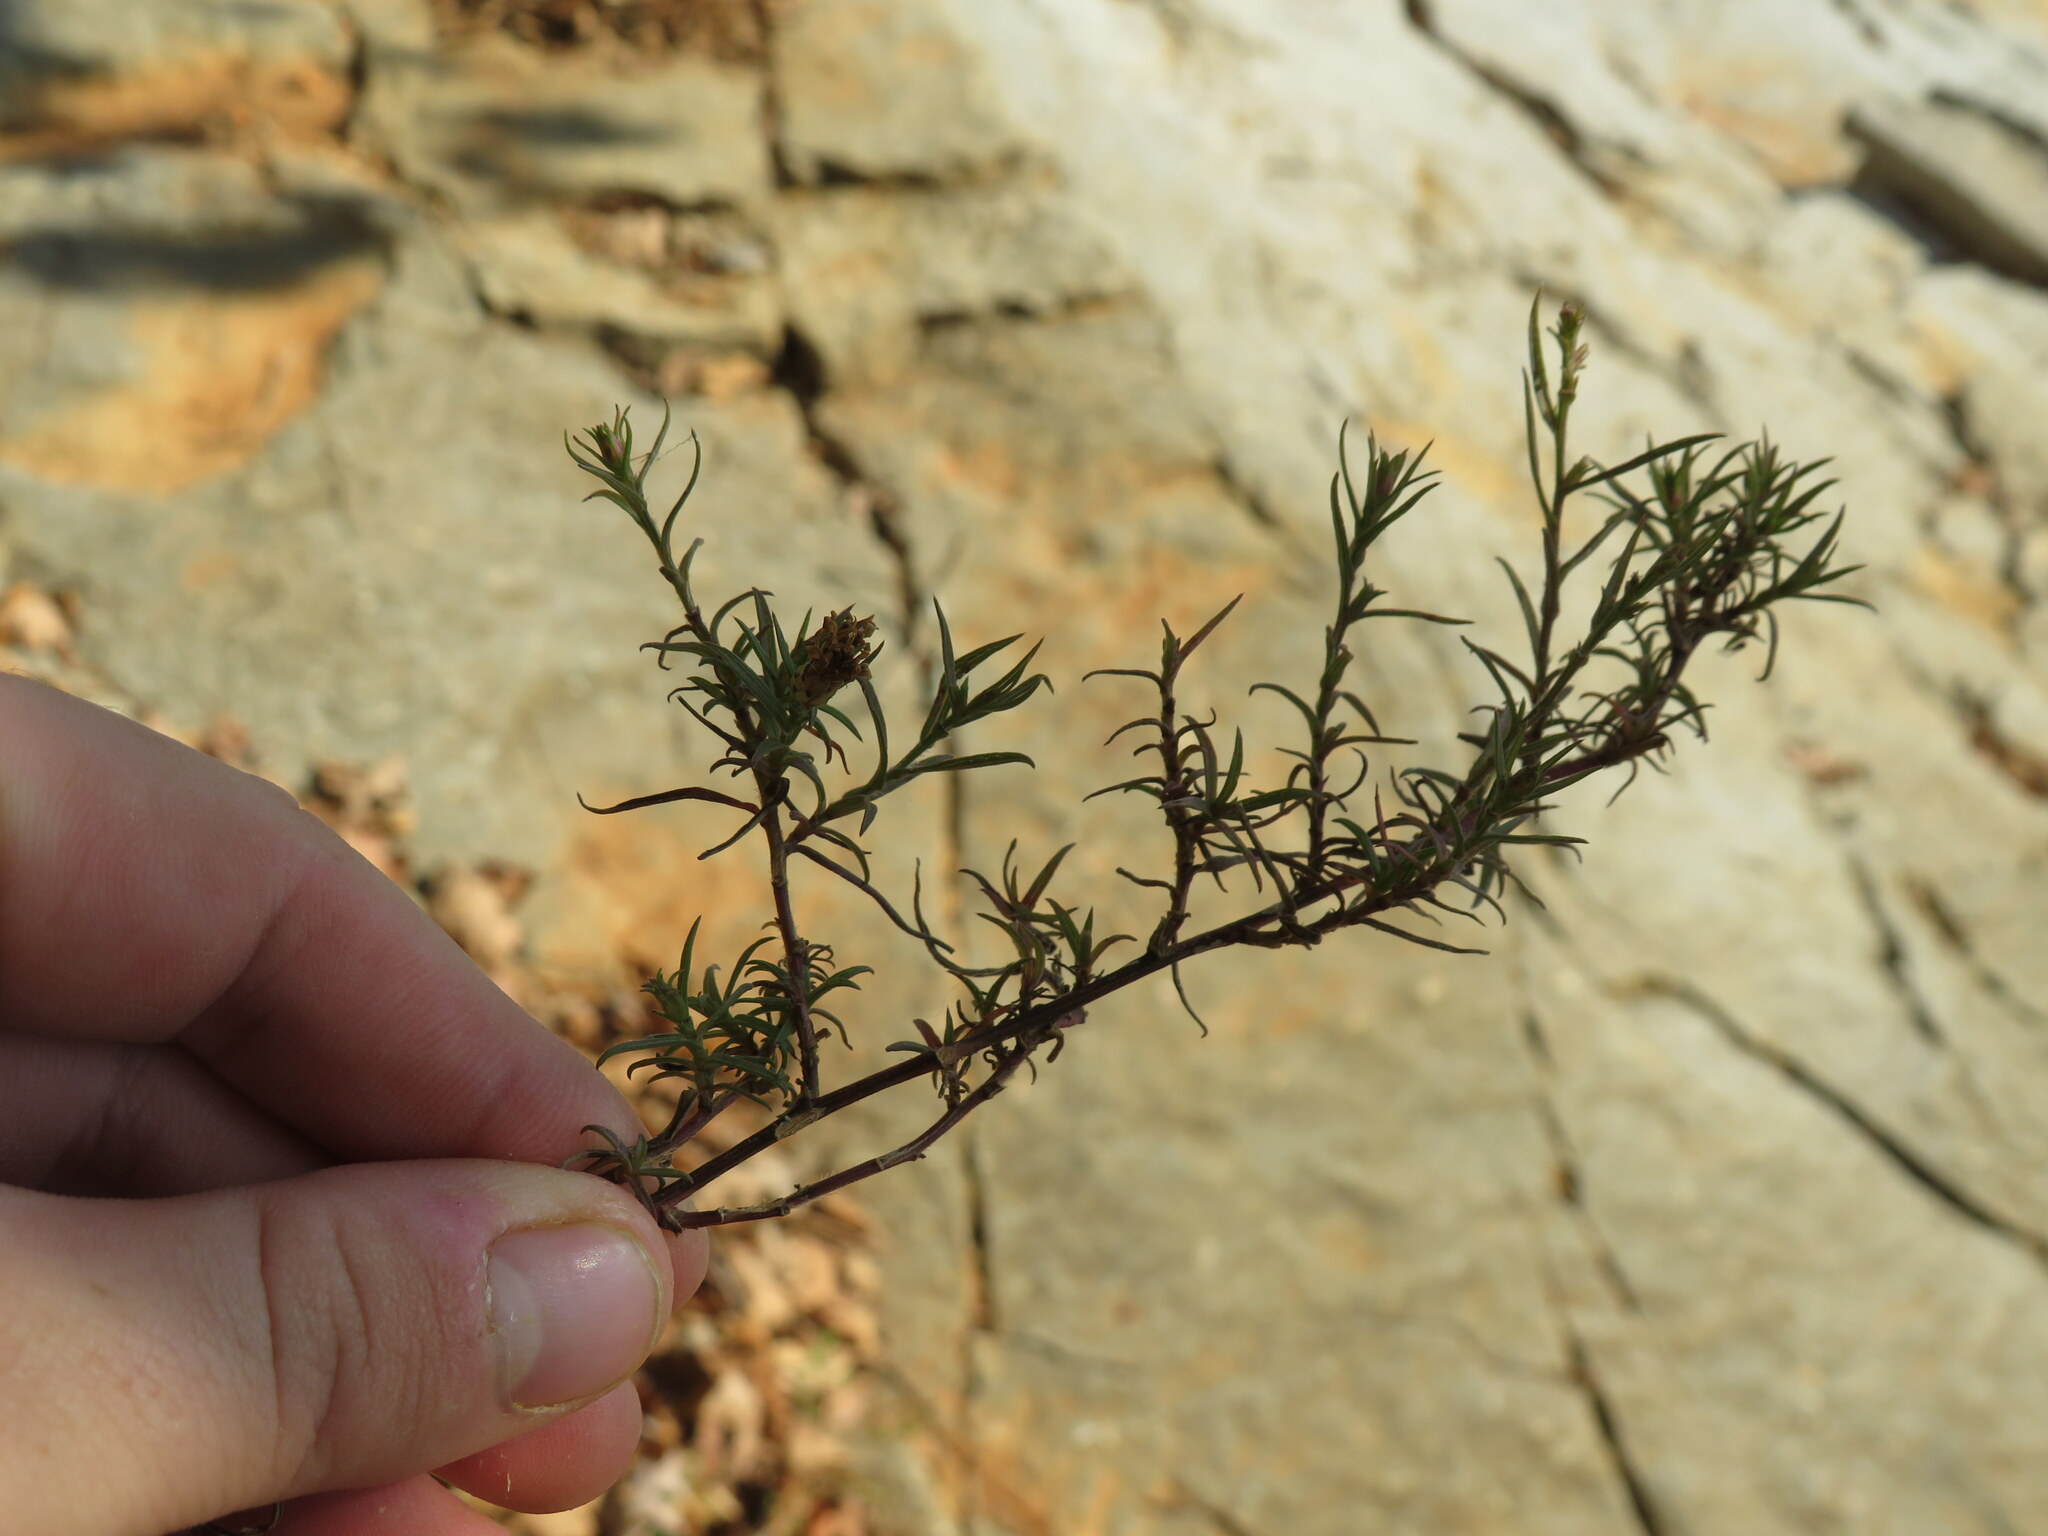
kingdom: Plantae
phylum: Tracheophyta
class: Magnoliopsida
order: Asterales
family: Asteraceae
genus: Symphyotrichum
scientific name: Symphyotrichum priceae
